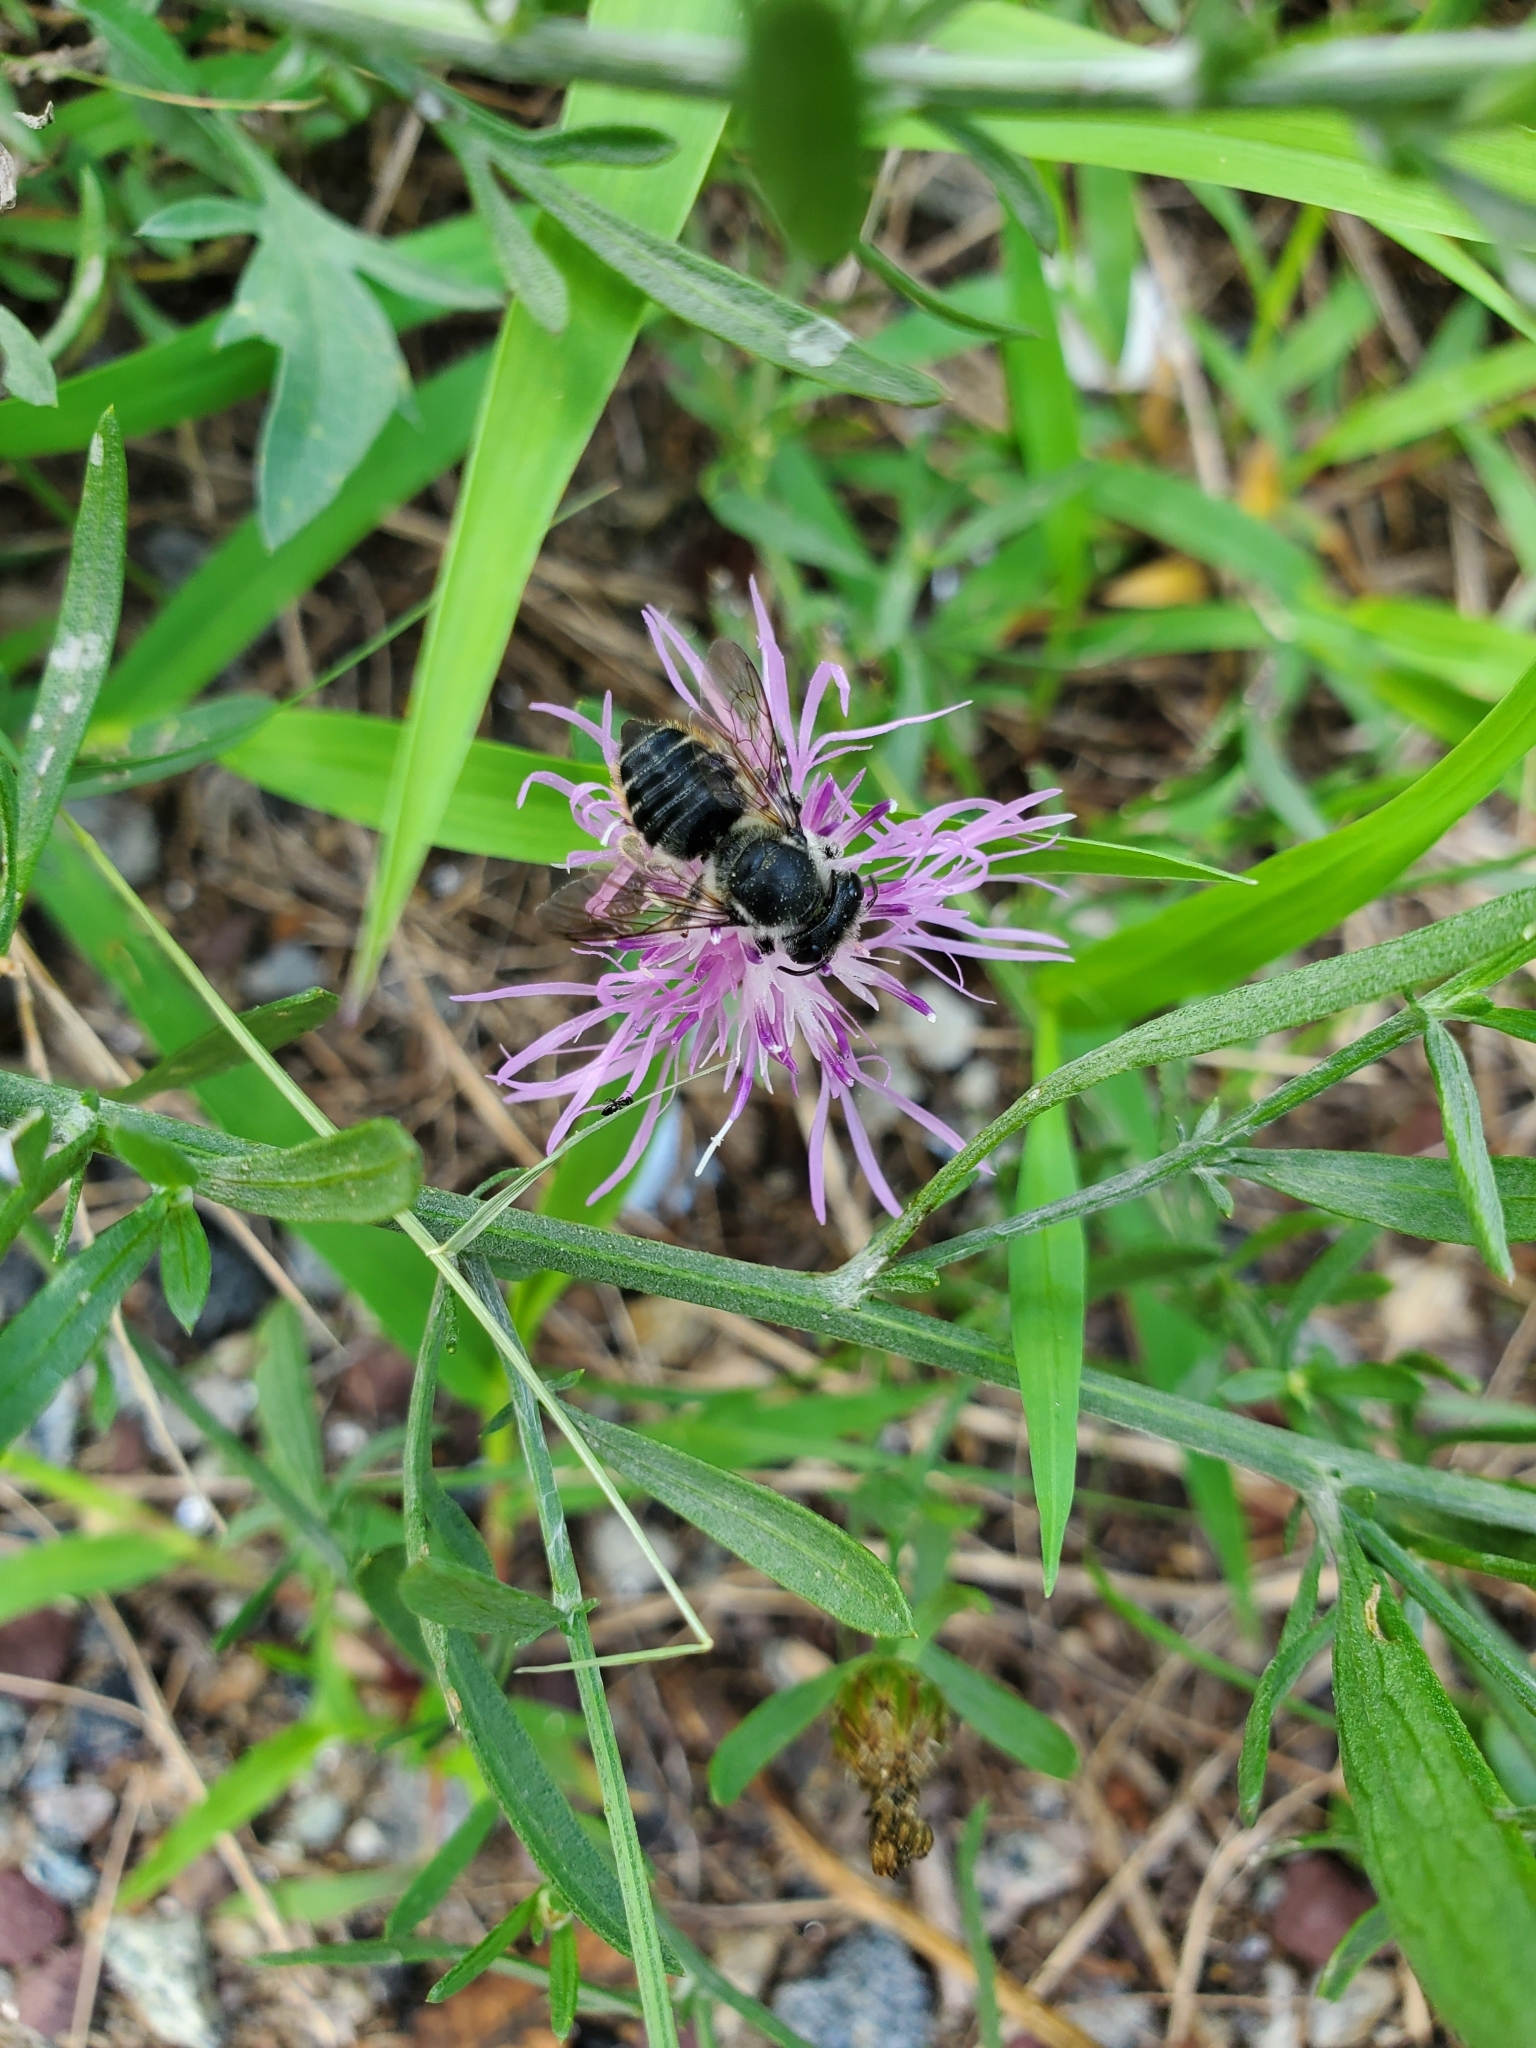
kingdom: Animalia
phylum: Arthropoda
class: Insecta
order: Hymenoptera
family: Megachilidae
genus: Megachile
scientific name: Megachile mendica
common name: Flat-tailed leafcutter
